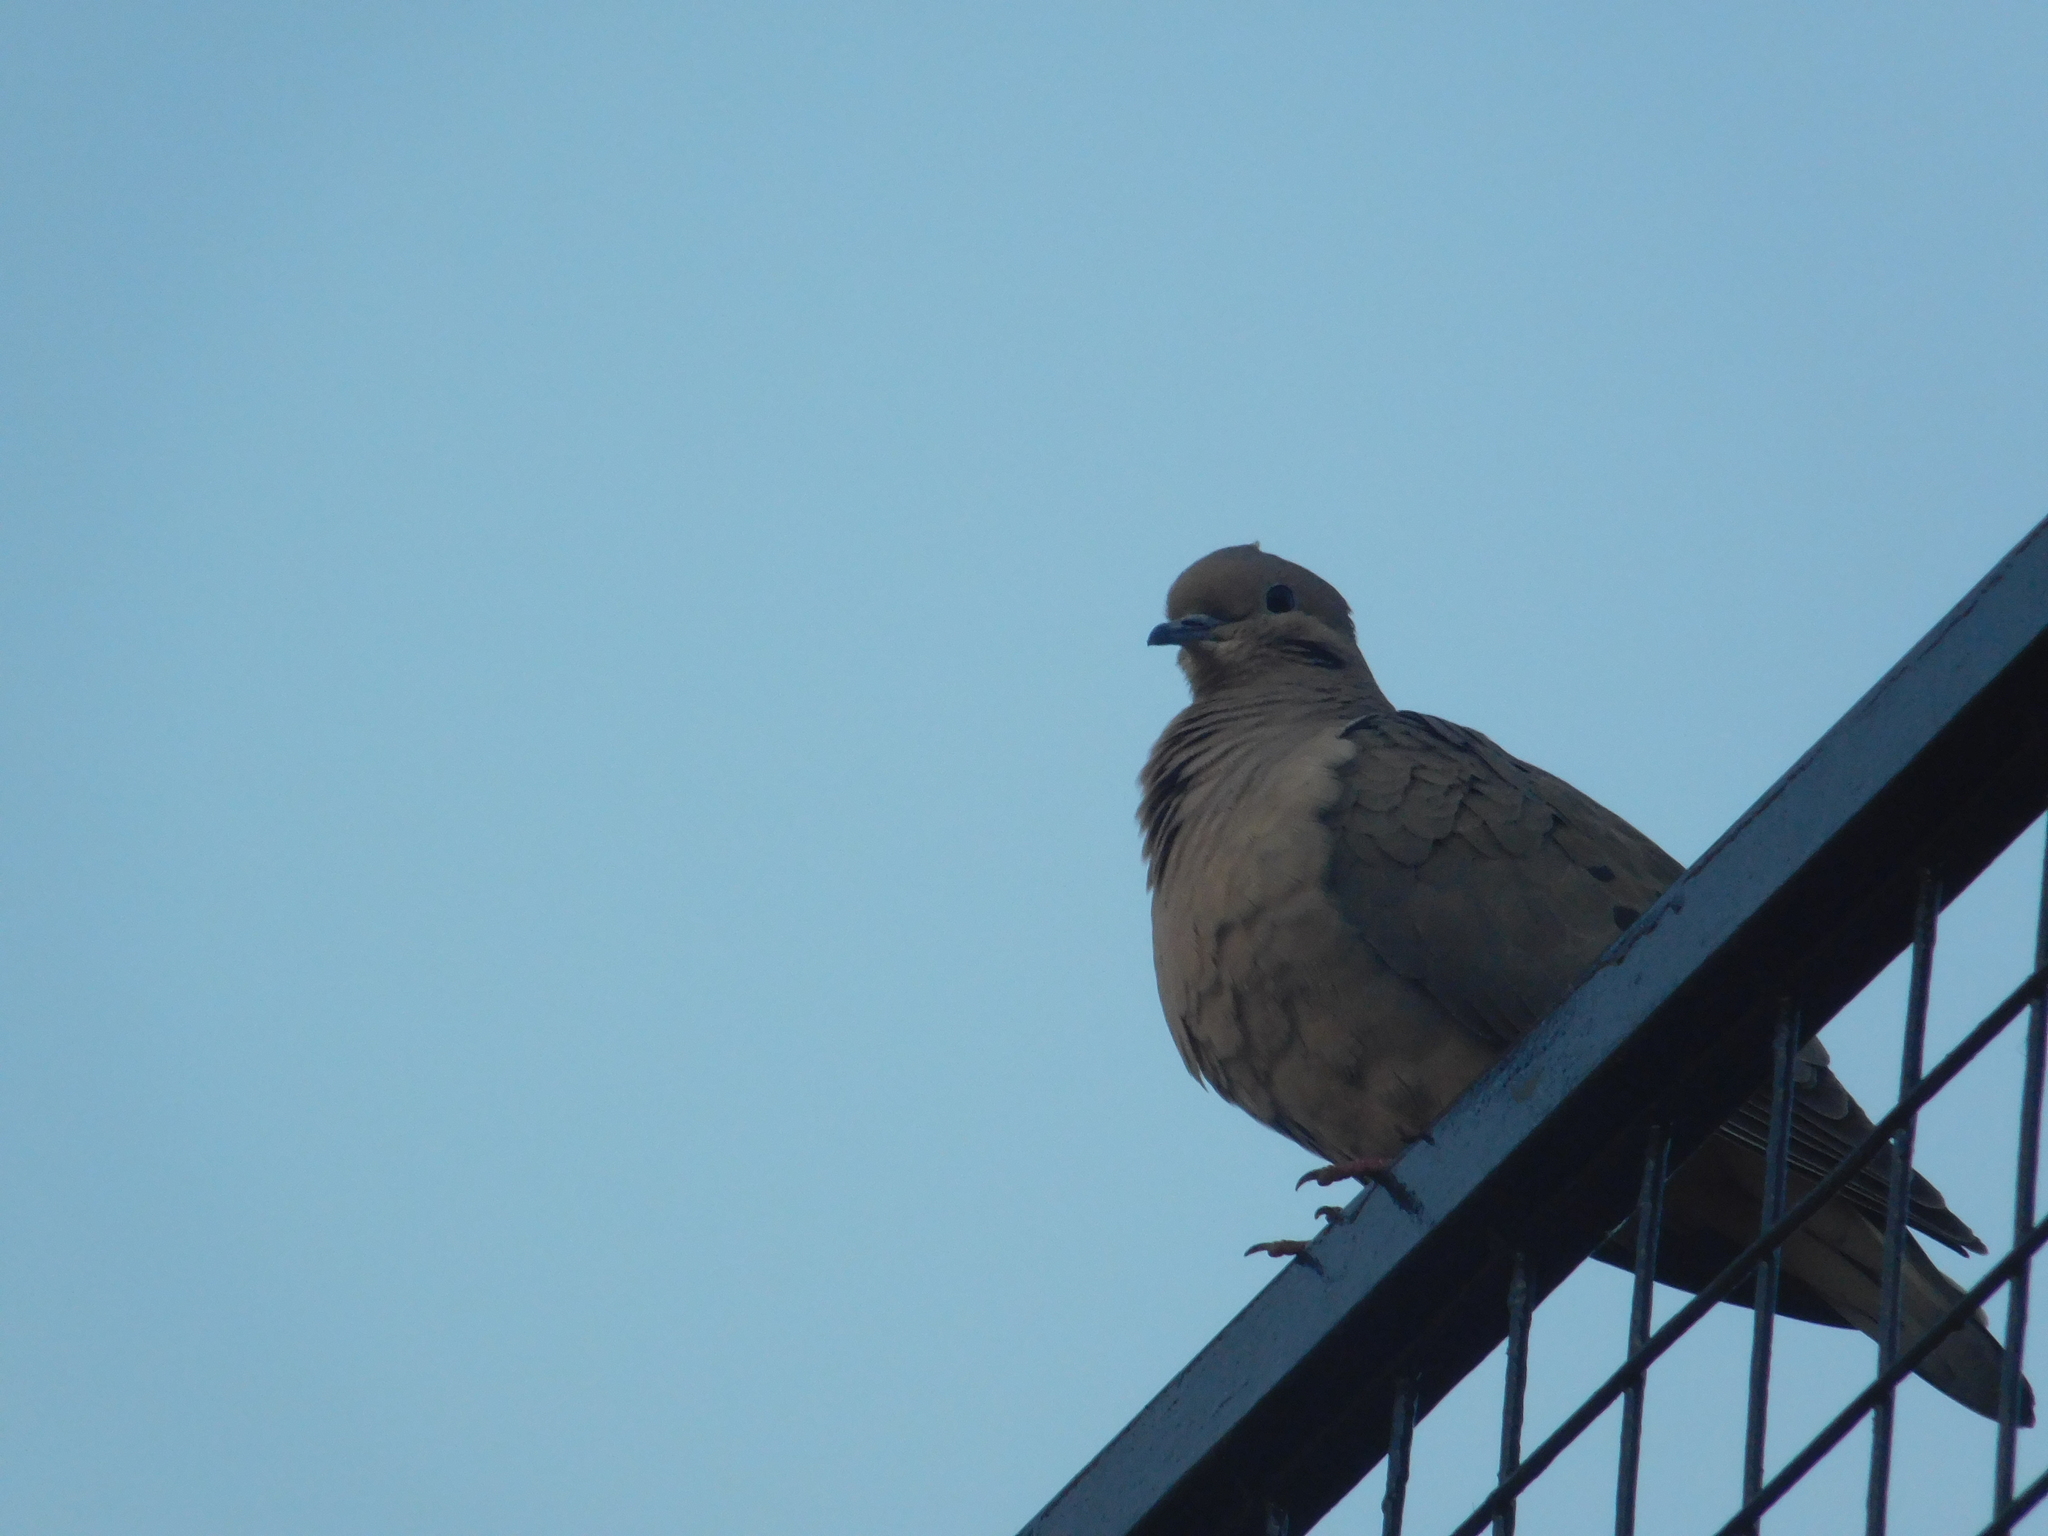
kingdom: Animalia
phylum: Chordata
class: Aves
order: Columbiformes
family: Columbidae
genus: Zenaida
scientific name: Zenaida auriculata
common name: Eared dove
